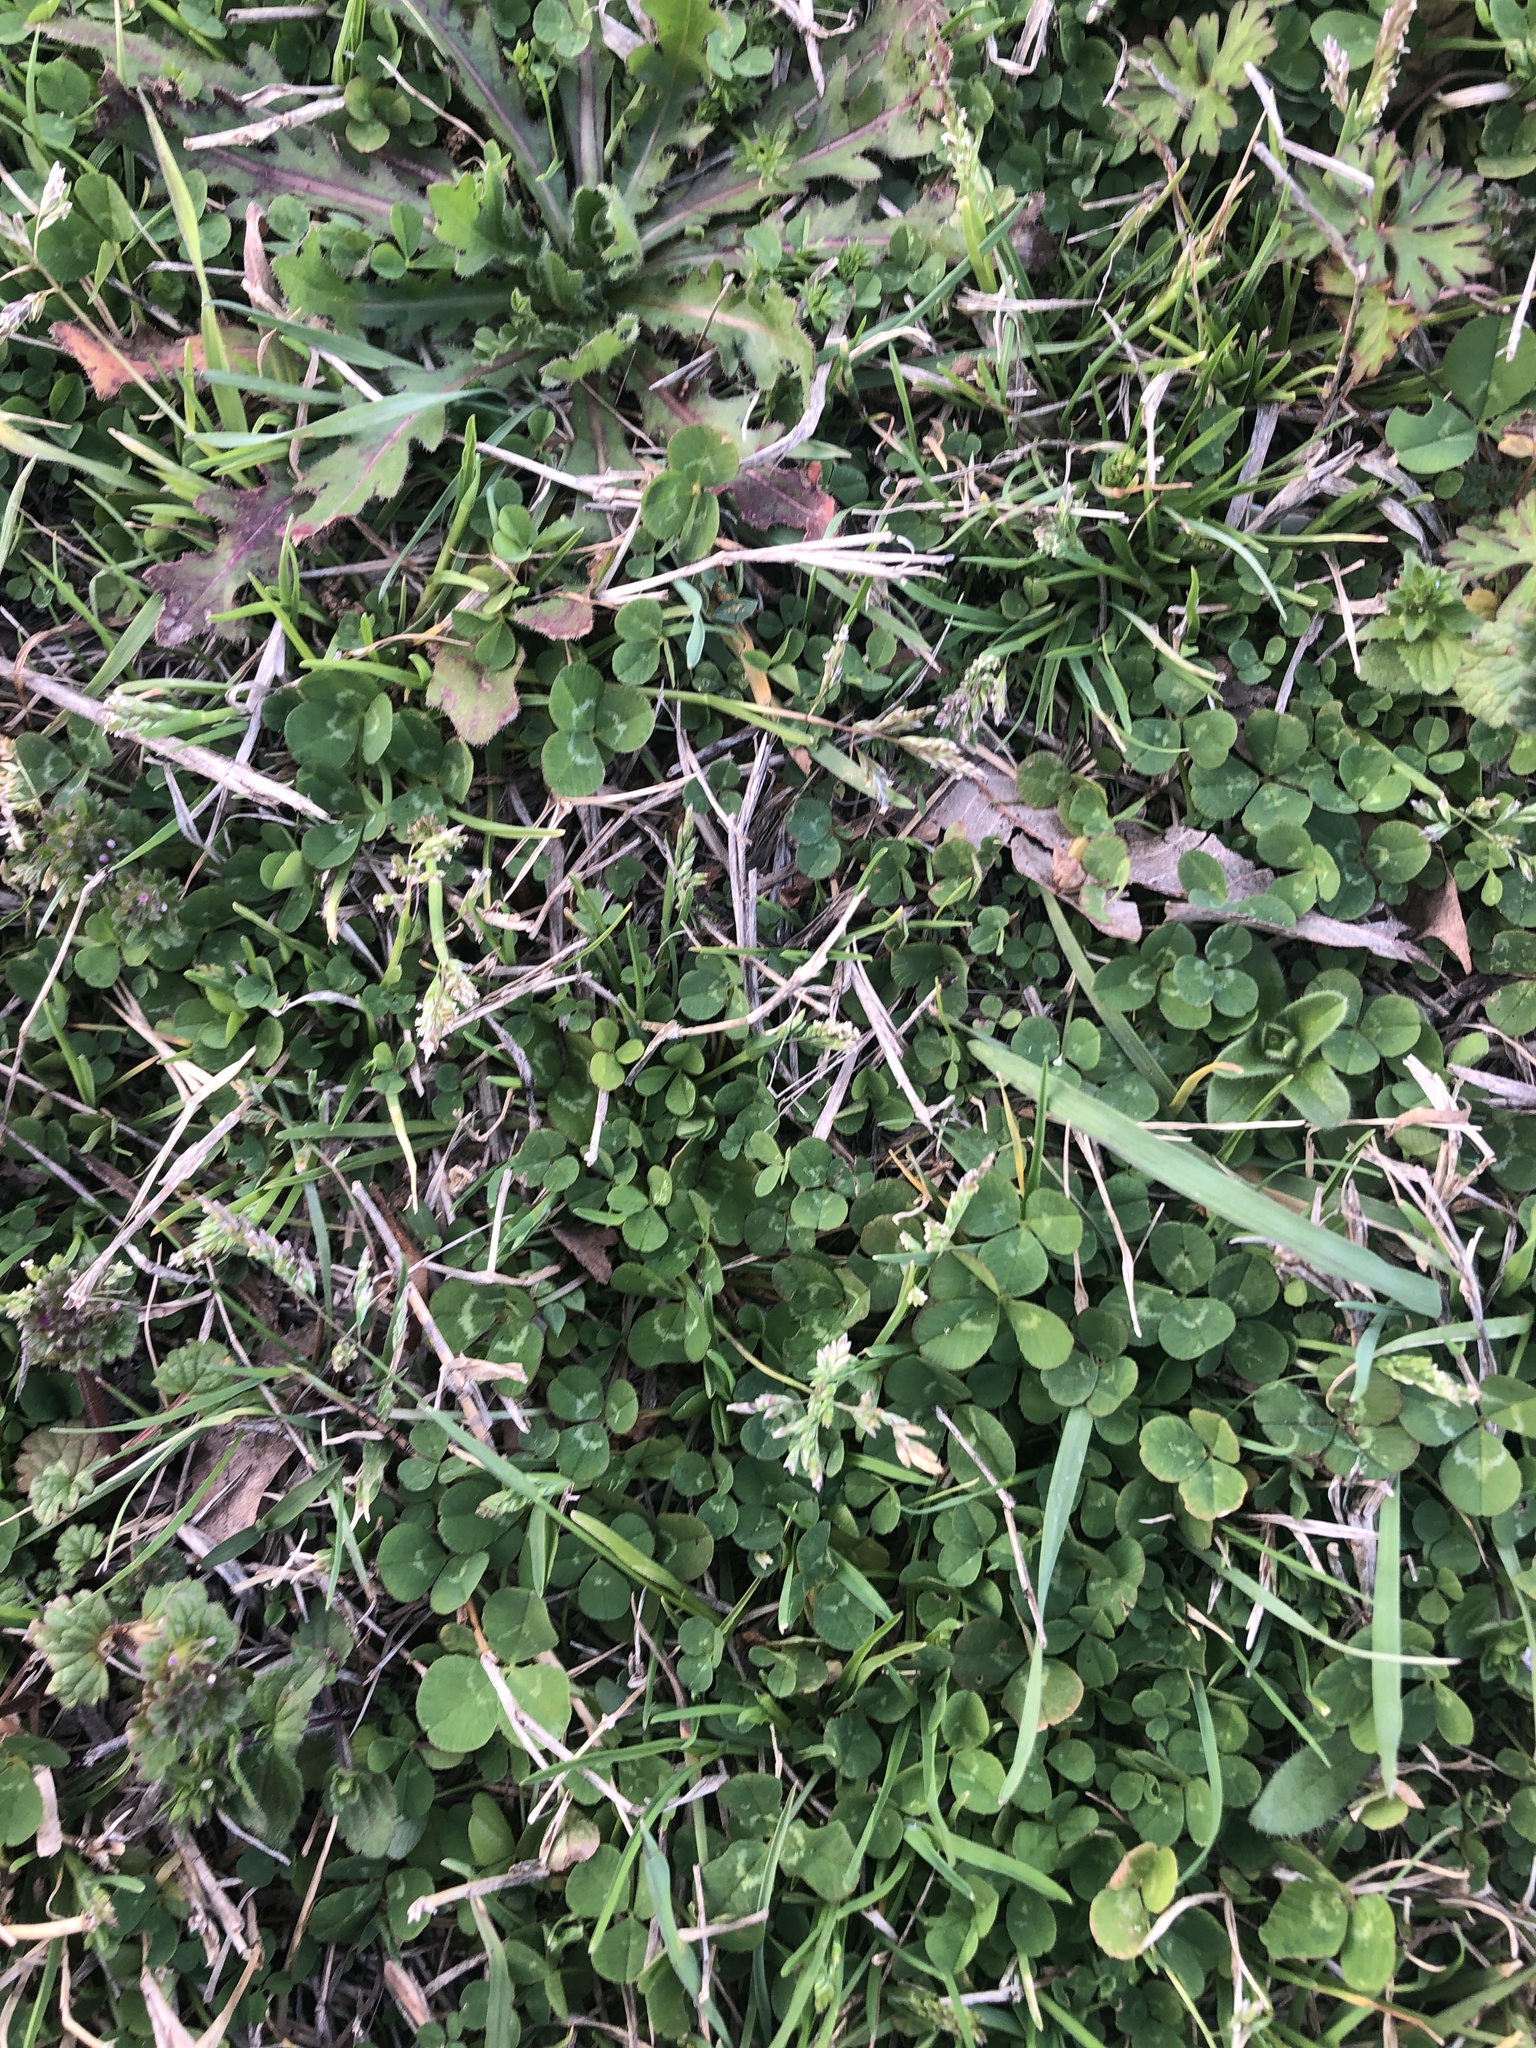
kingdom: Plantae
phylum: Tracheophyta
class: Liliopsida
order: Poales
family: Poaceae
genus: Poa
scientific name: Poa annua
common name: Annual bluegrass
